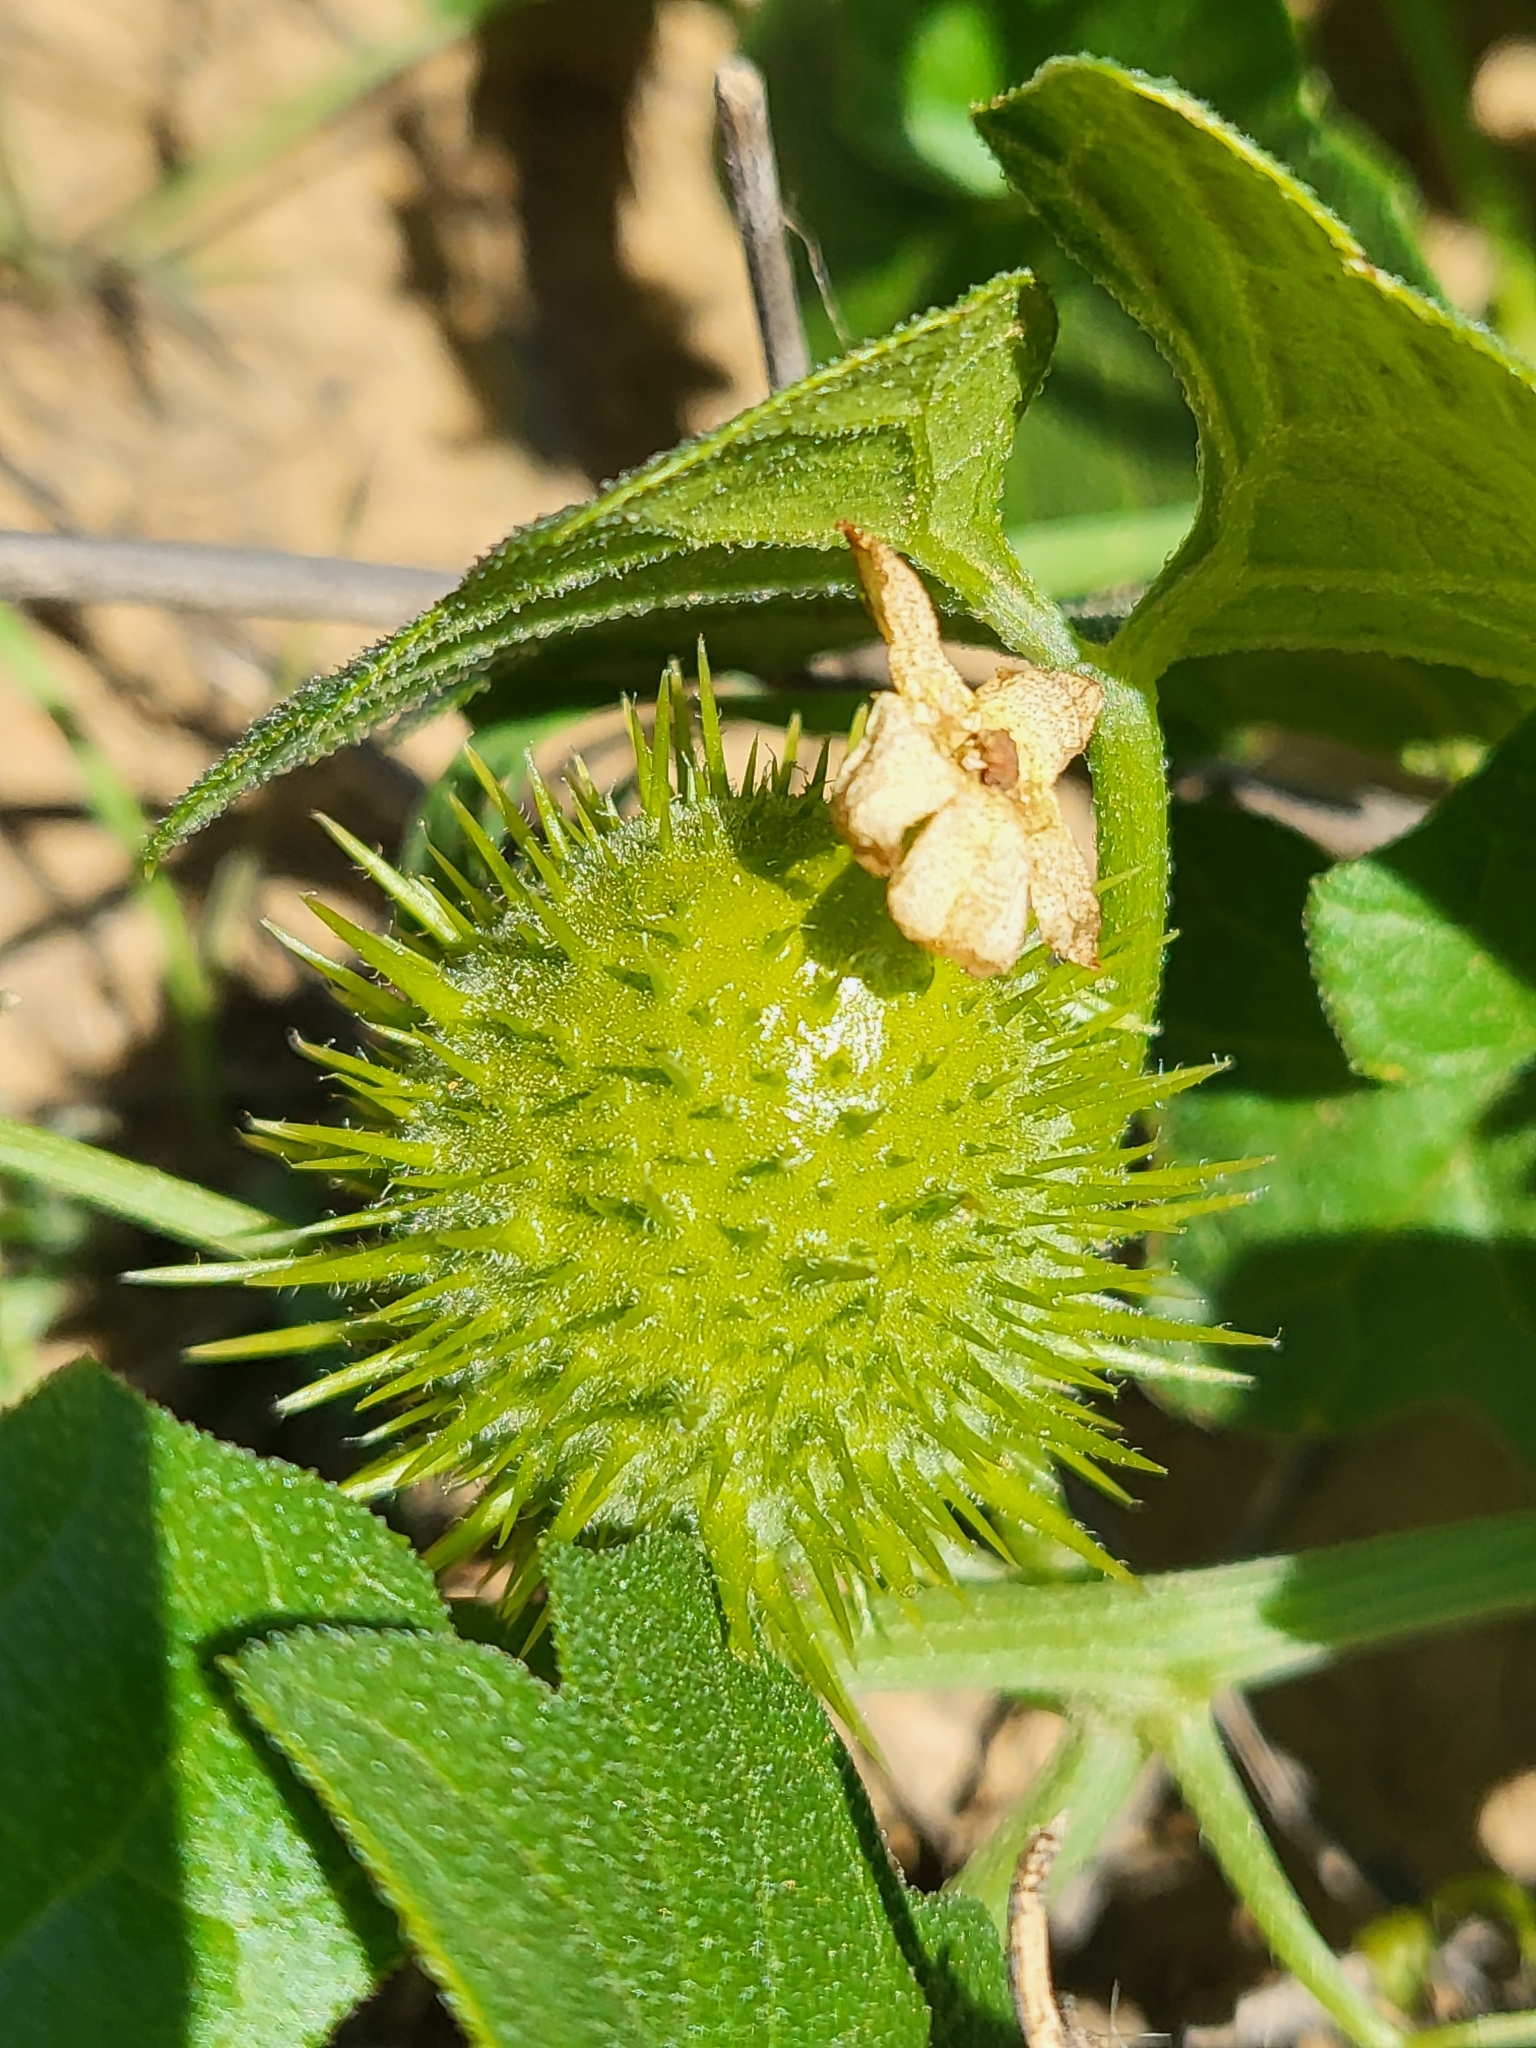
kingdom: Plantae
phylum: Tracheophyta
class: Magnoliopsida
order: Cucurbitales
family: Cucurbitaceae
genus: Marah
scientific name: Marah macrocarpa
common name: Cucamonga manroot
